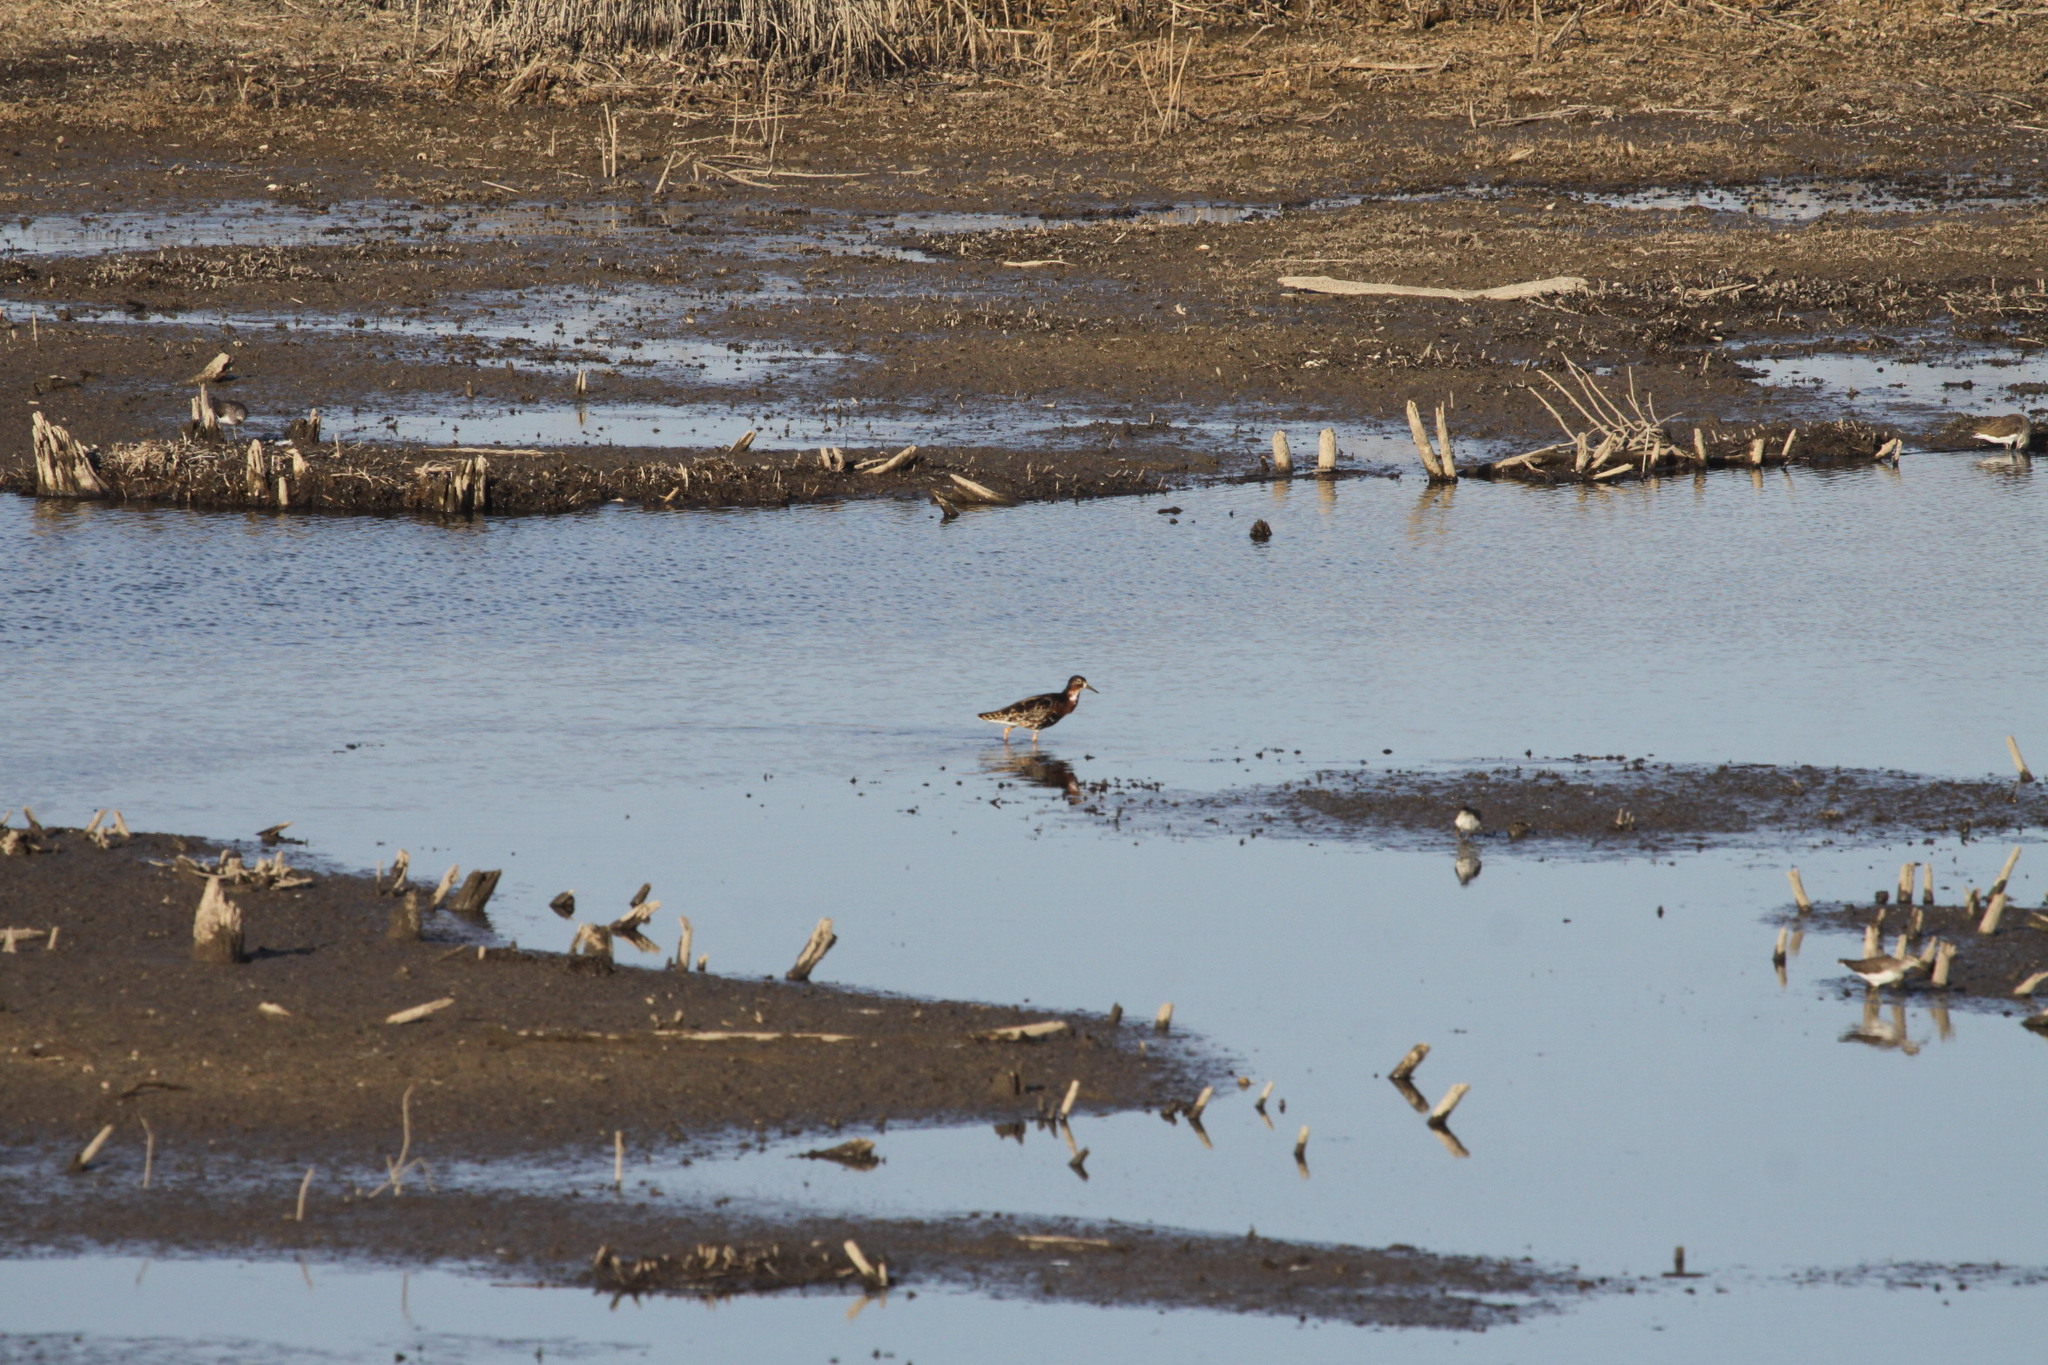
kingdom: Animalia
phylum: Chordata
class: Aves
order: Charadriiformes
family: Scolopacidae
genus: Calidris
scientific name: Calidris pugnax
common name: Ruff
